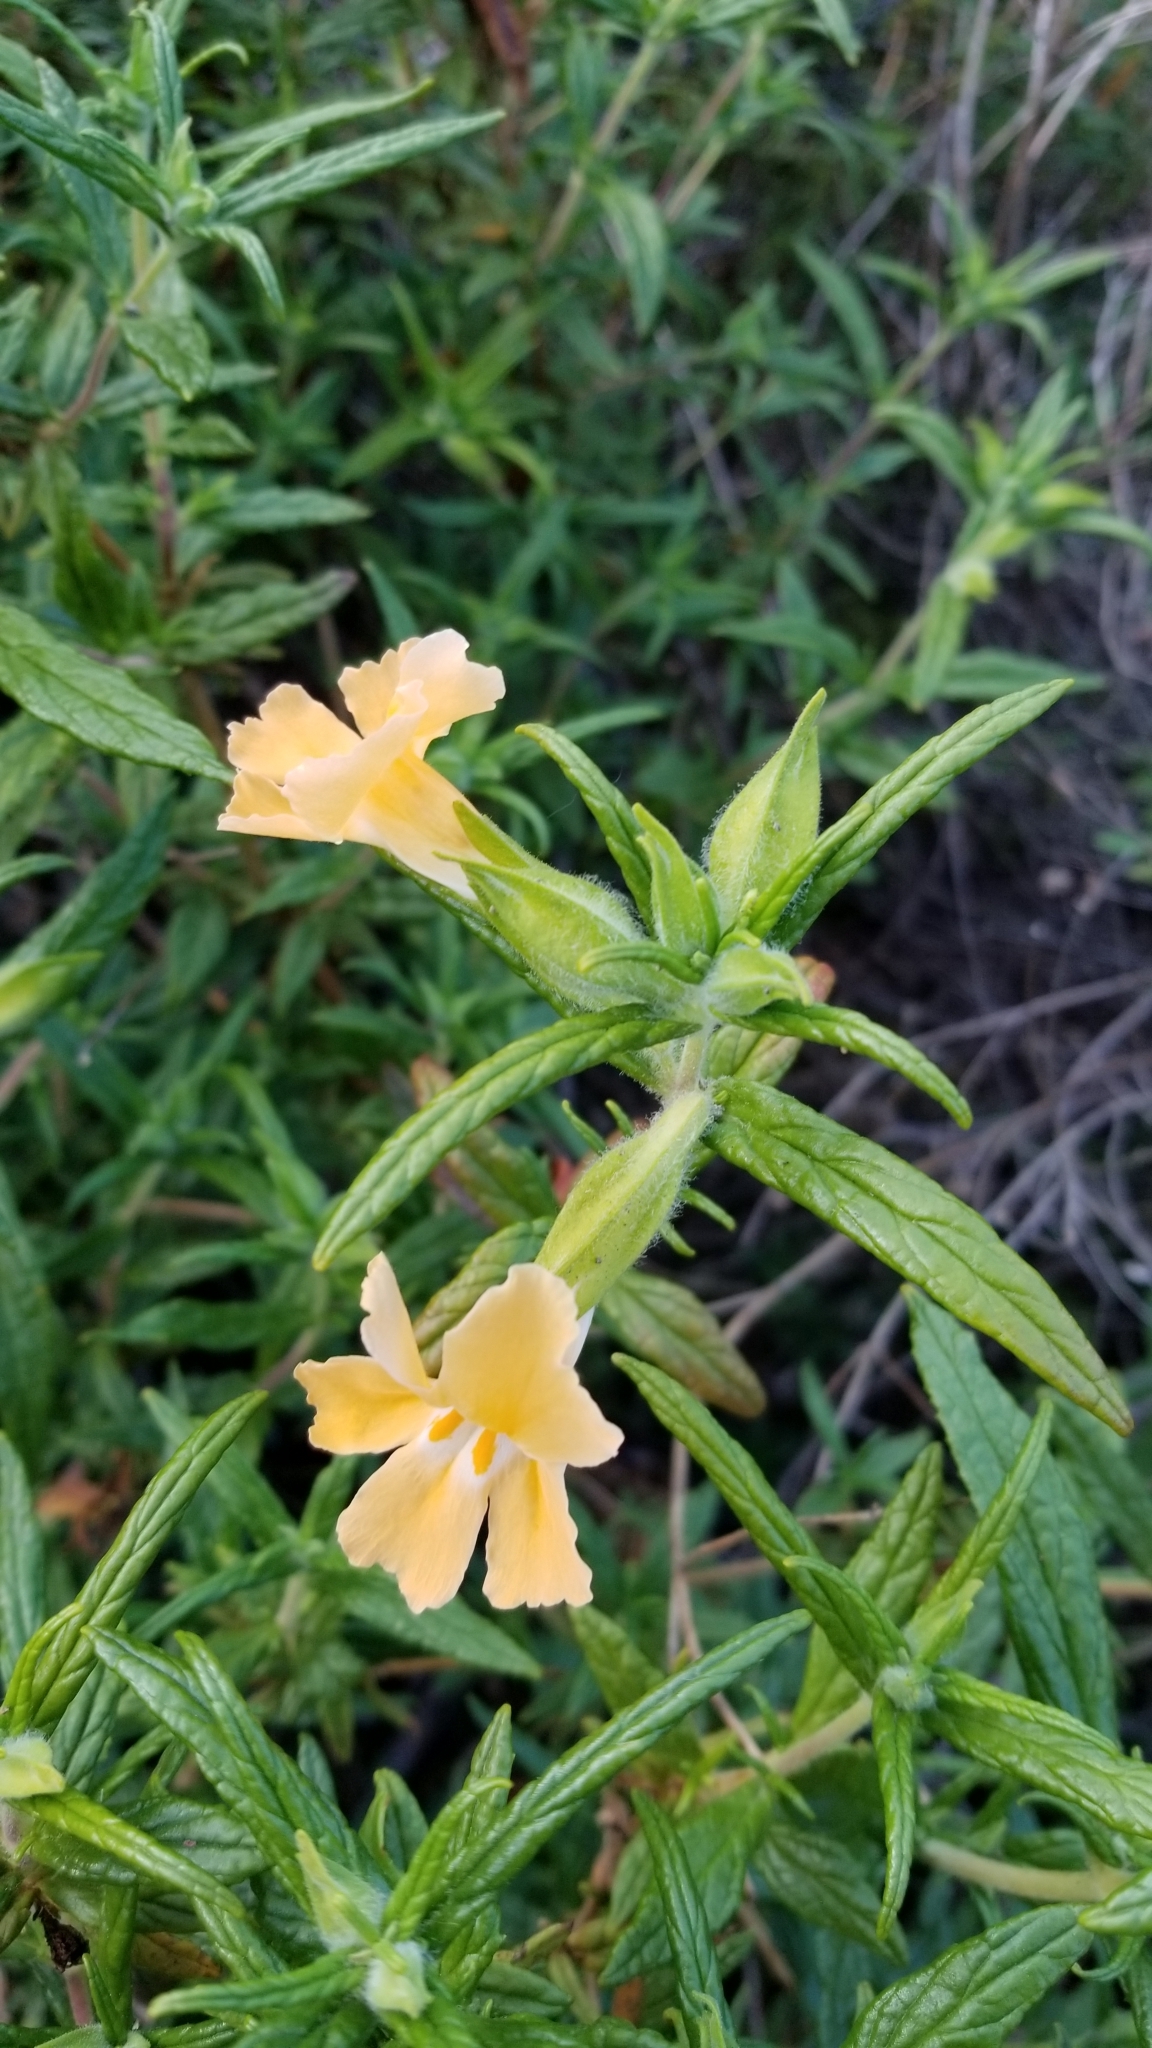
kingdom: Plantae
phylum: Tracheophyta
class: Magnoliopsida
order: Lamiales
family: Phrymaceae
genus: Diplacus
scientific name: Diplacus longiflorus
